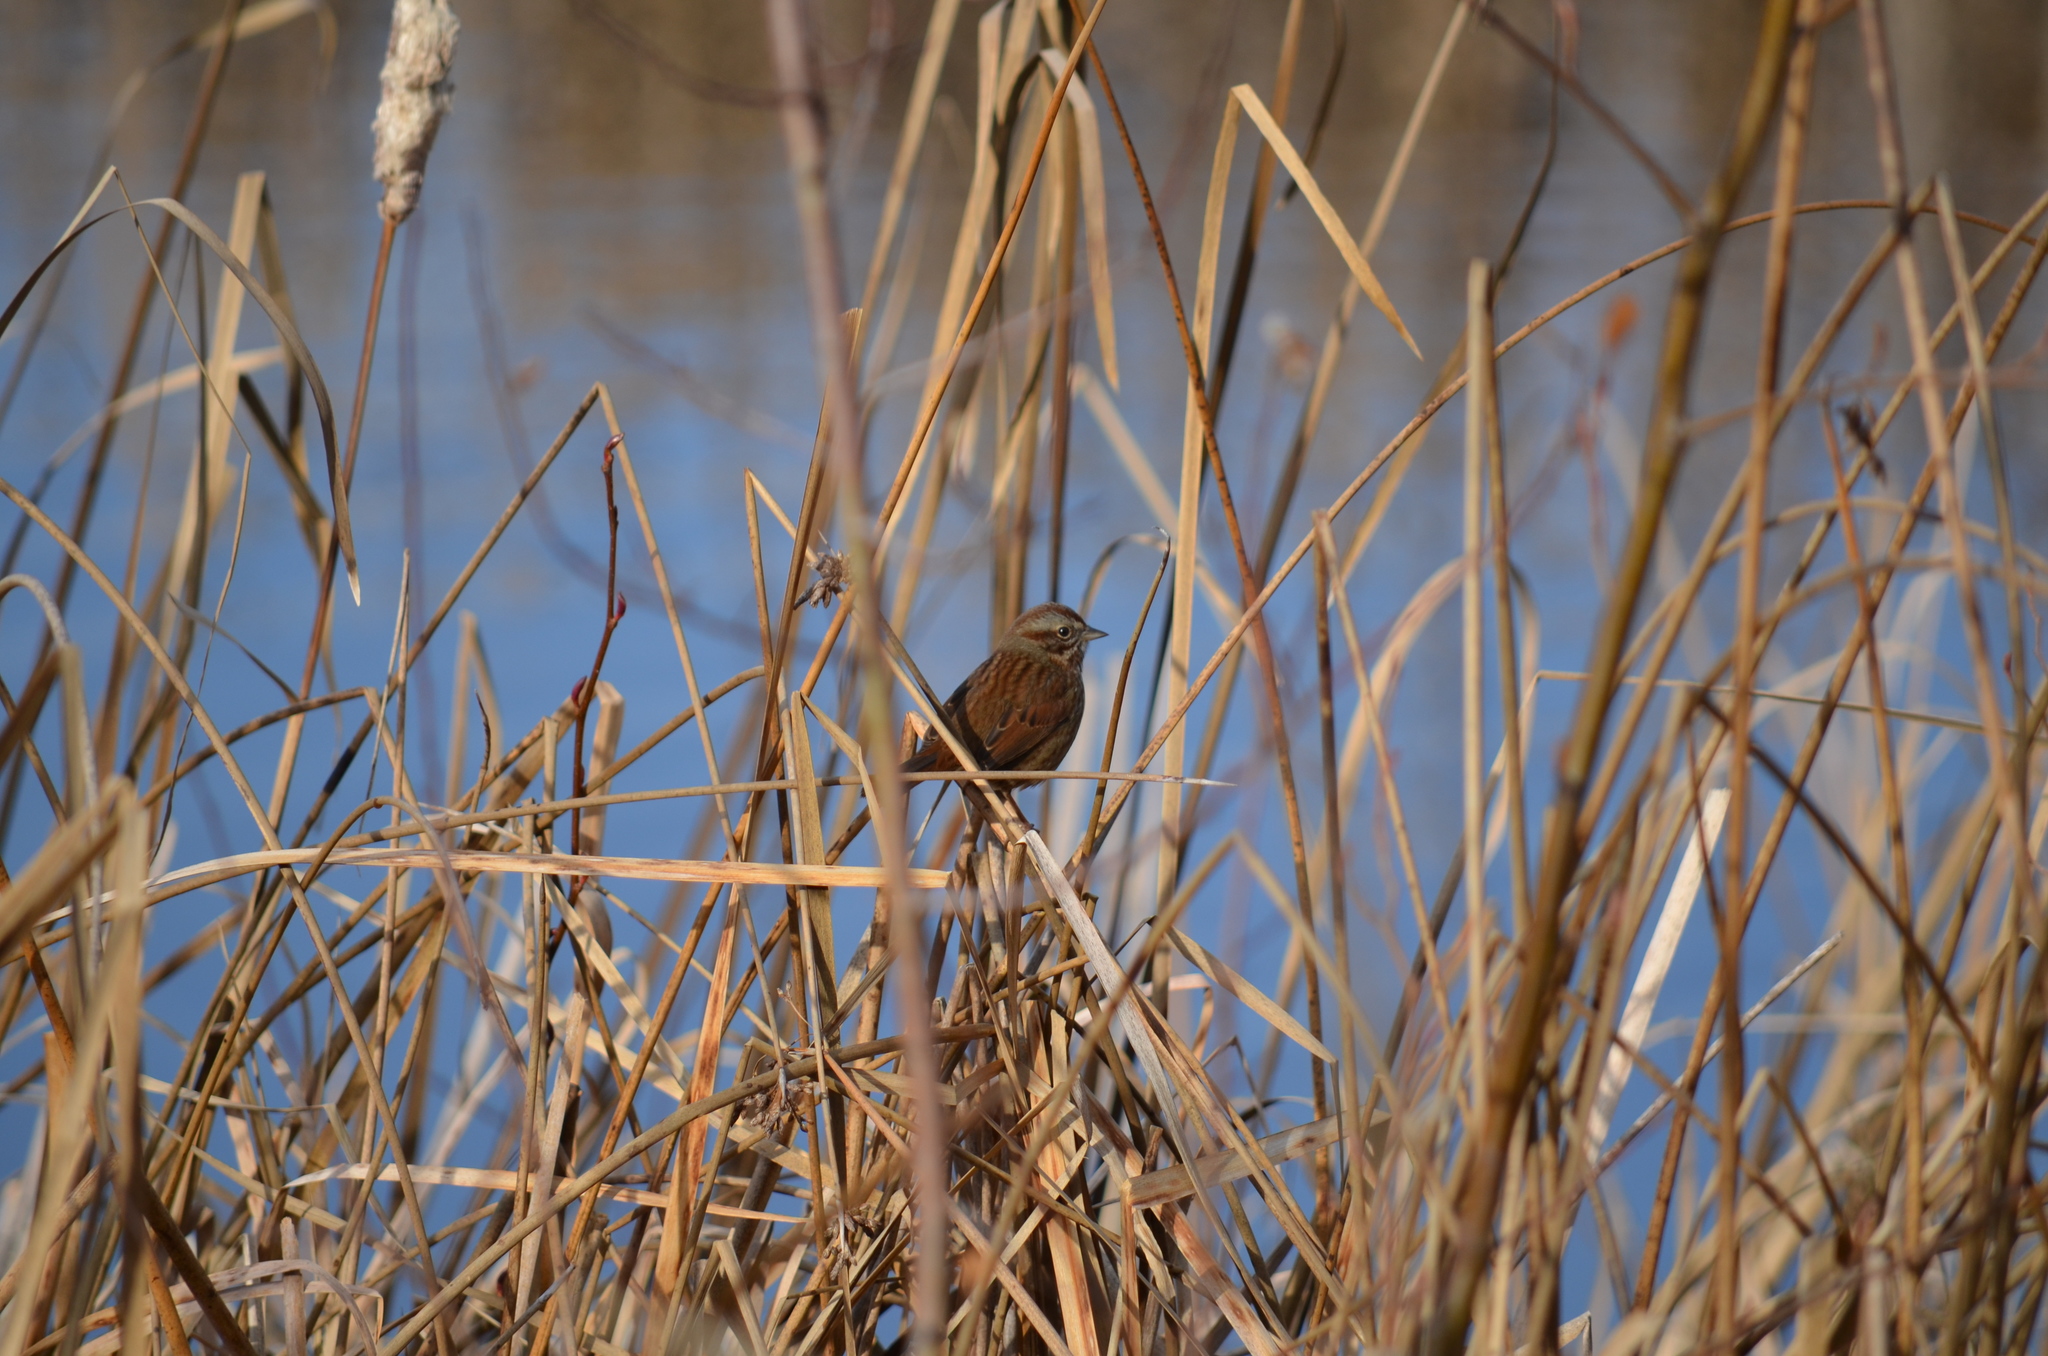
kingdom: Animalia
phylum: Chordata
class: Aves
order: Passeriformes
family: Passerellidae
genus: Melospiza
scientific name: Melospiza melodia
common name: Song sparrow
